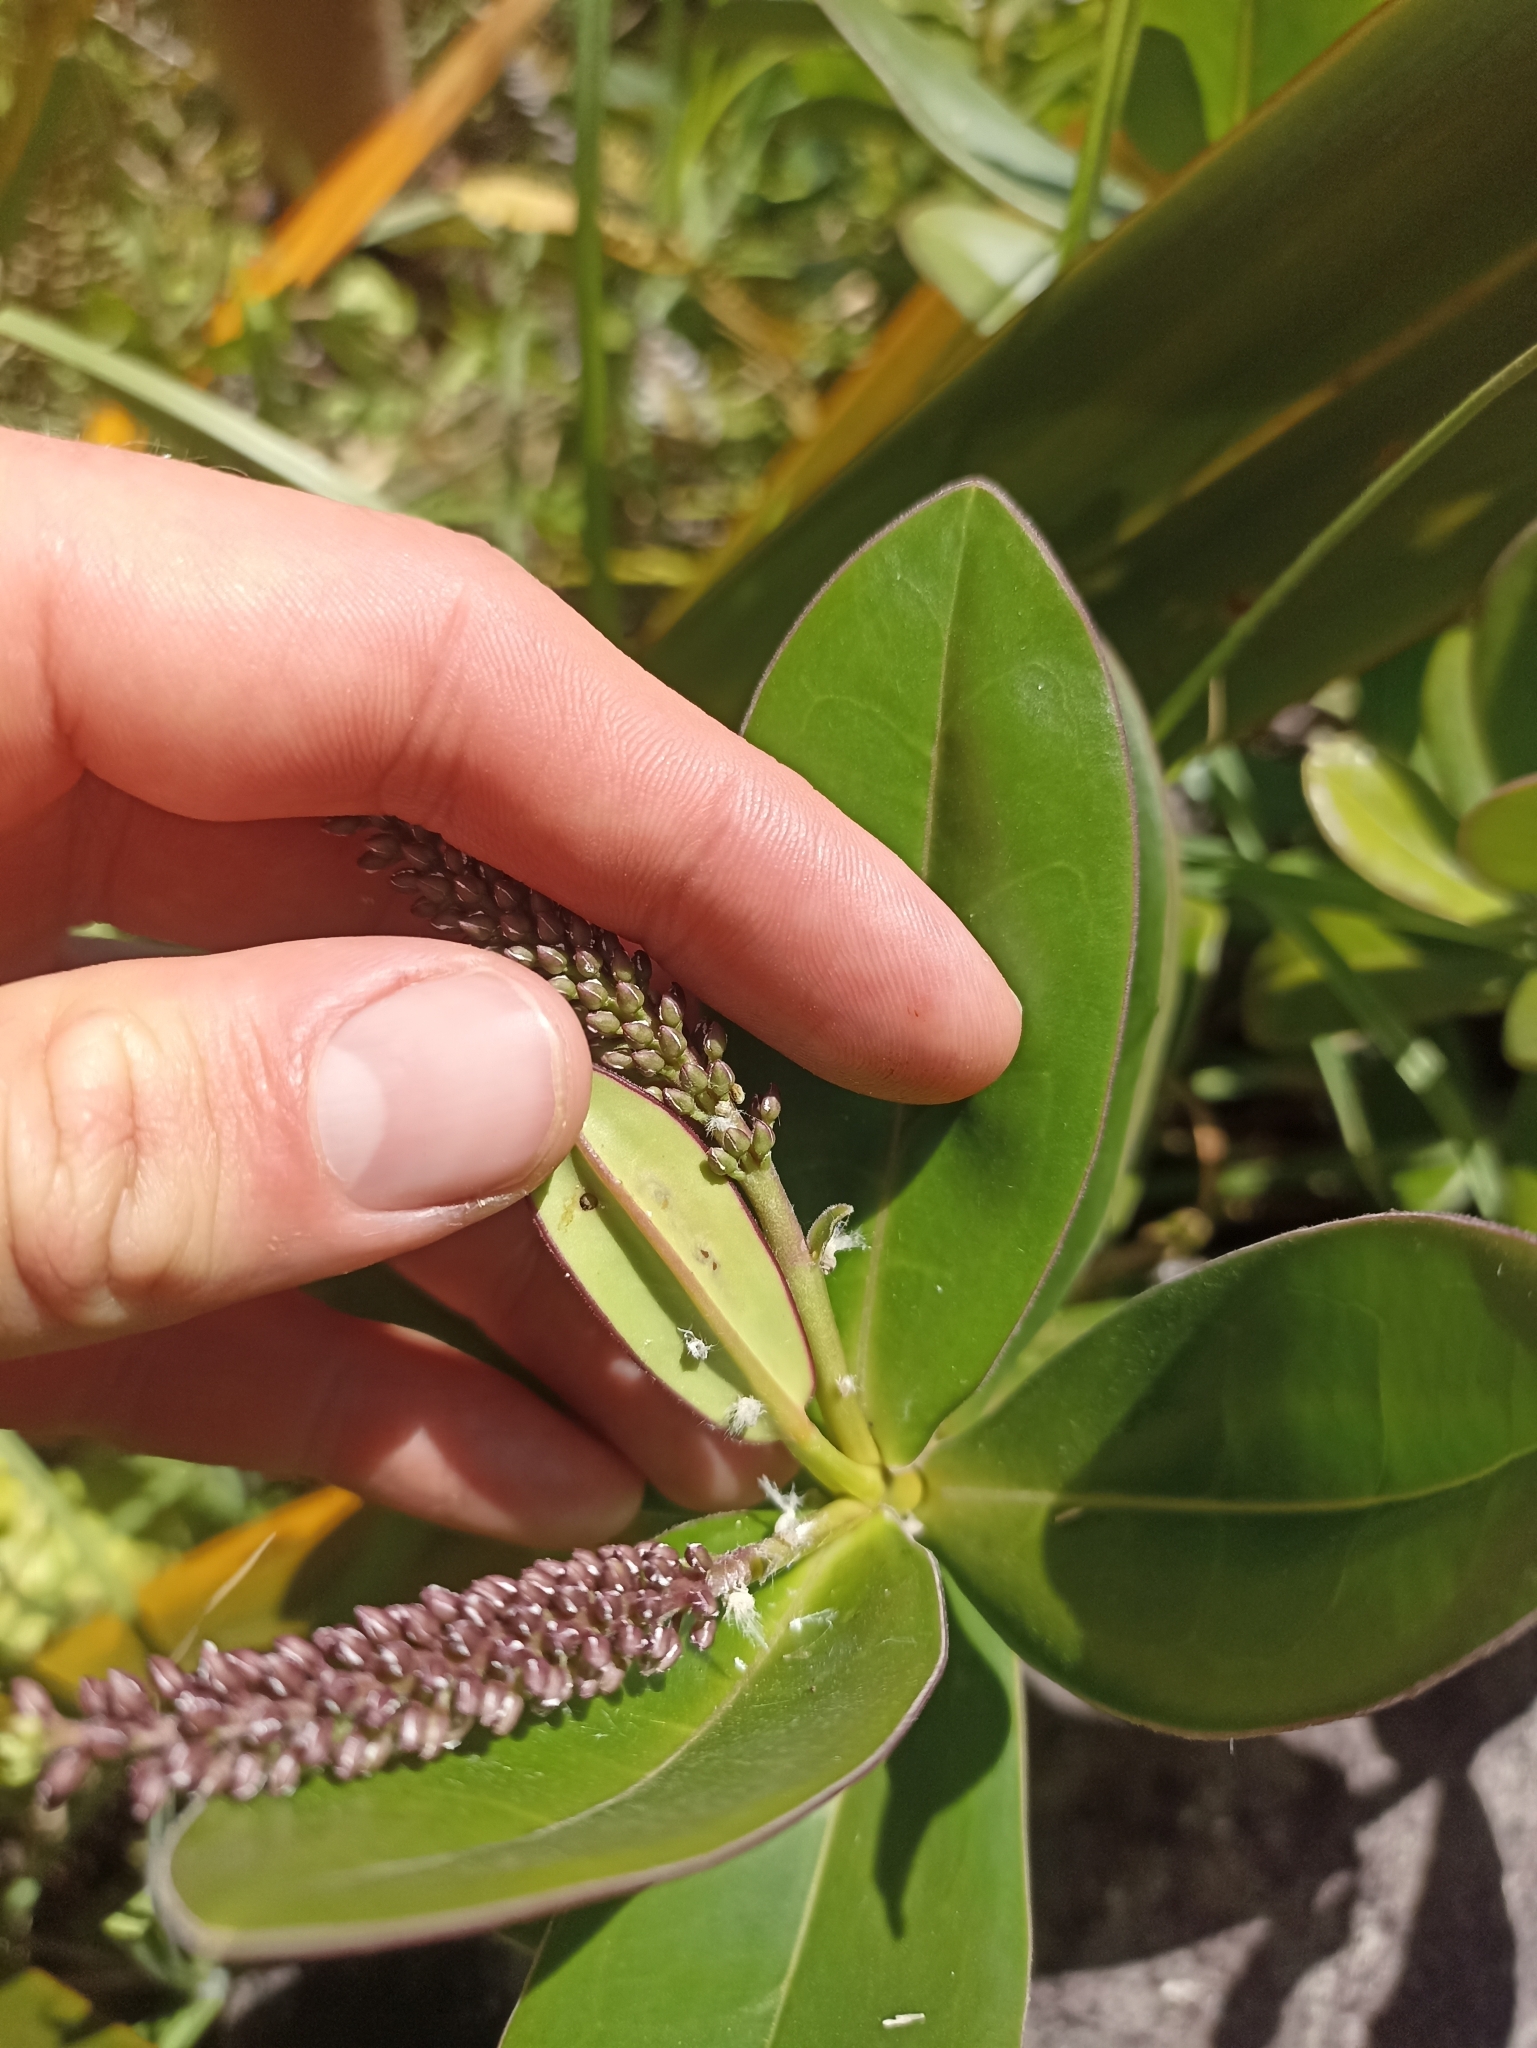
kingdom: Plantae
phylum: Tracheophyta
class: Magnoliopsida
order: Lamiales
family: Plantaginaceae
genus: Veronica
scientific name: Veronica speciosa
